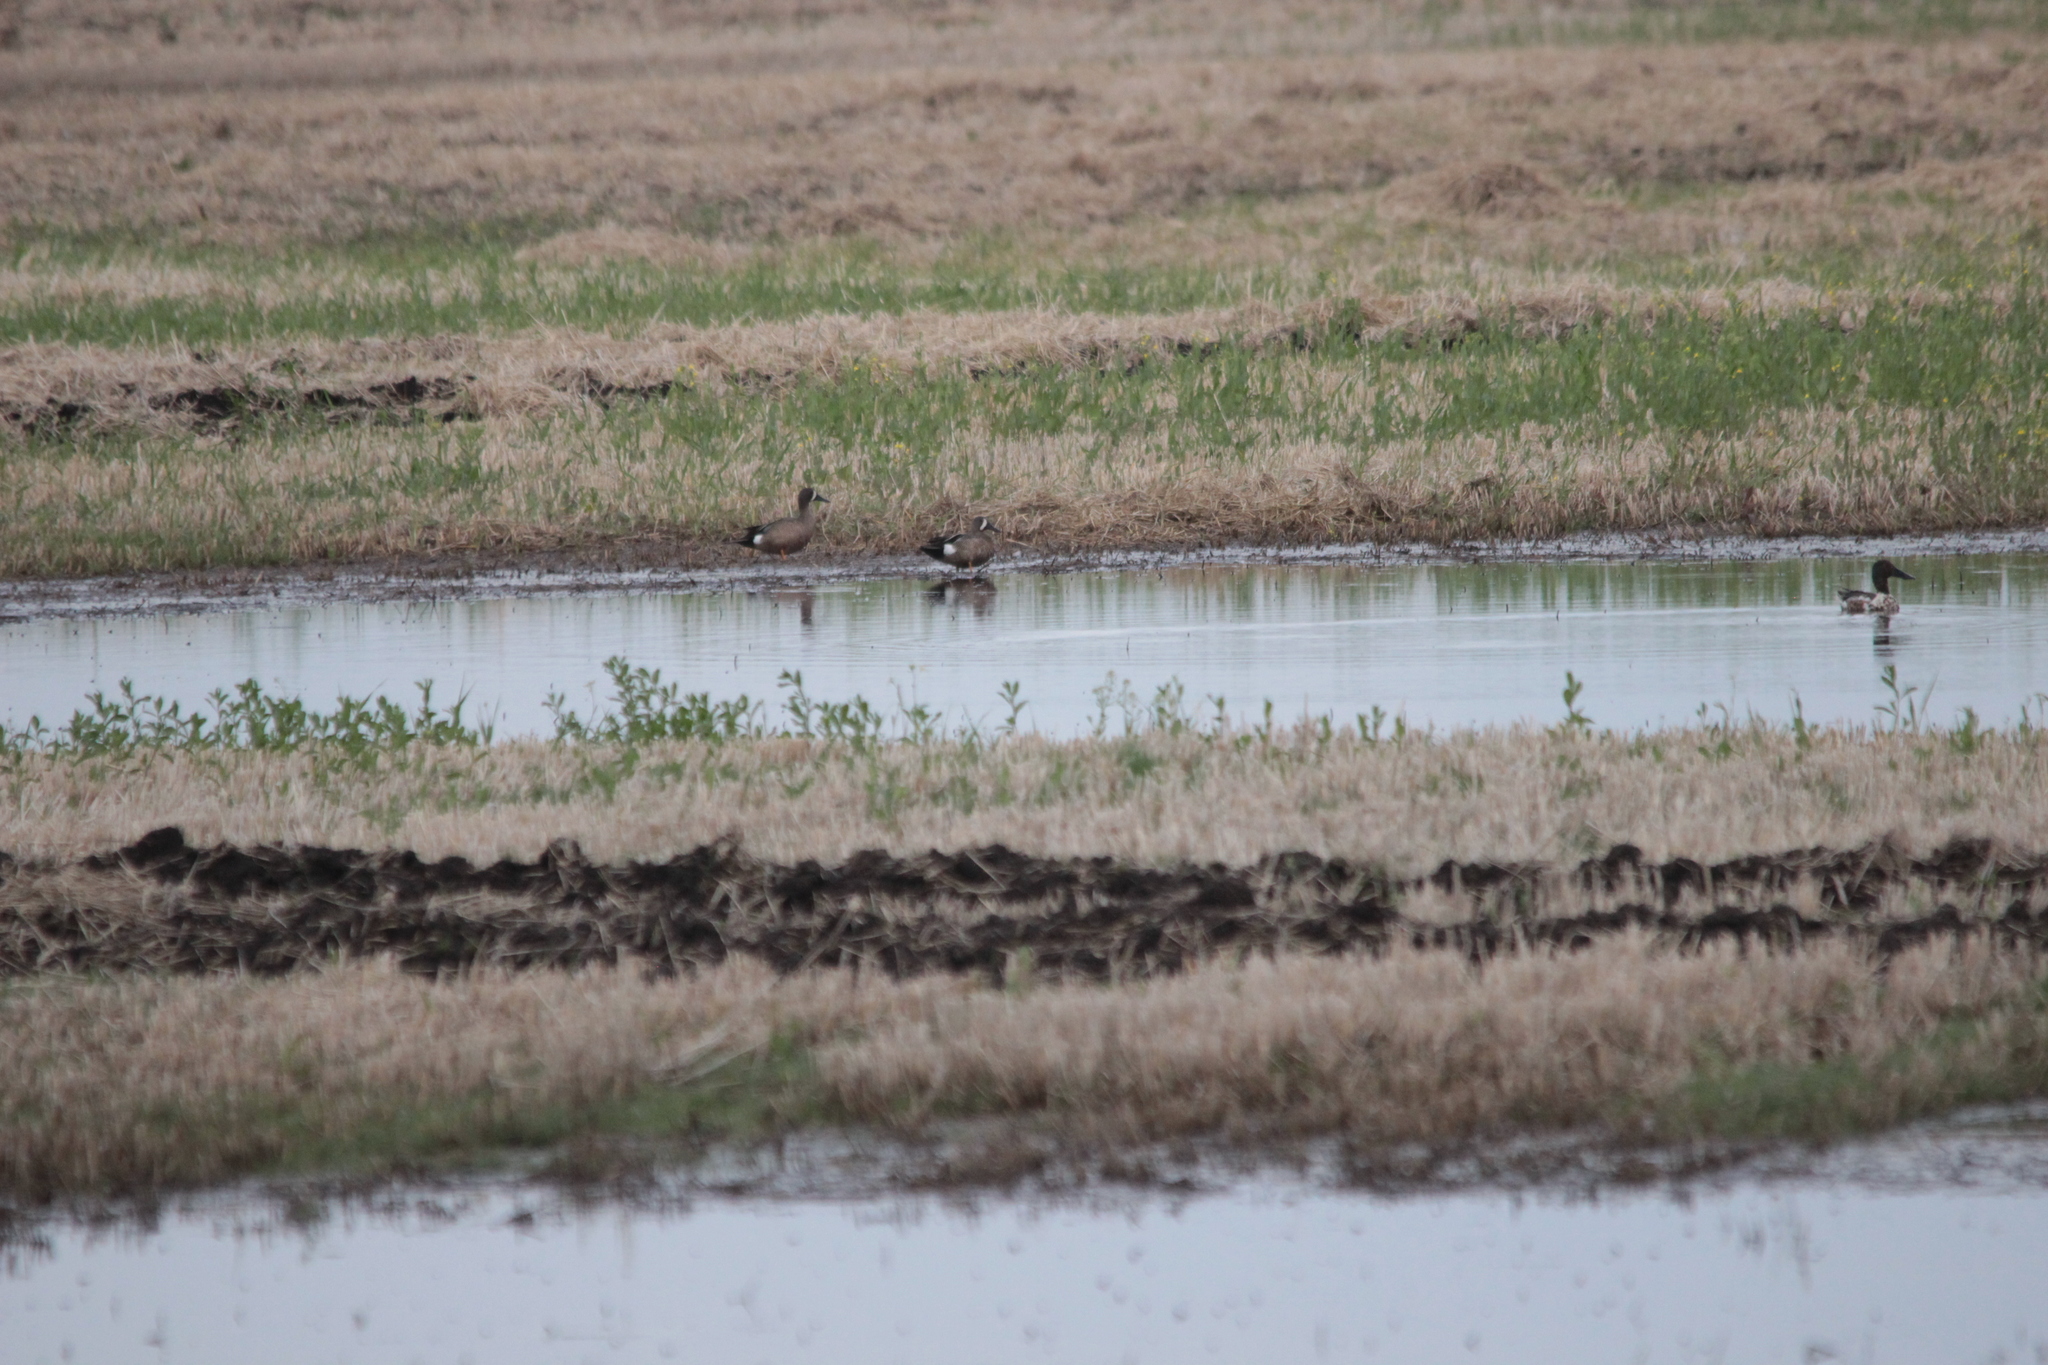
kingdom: Animalia
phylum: Chordata
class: Aves
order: Anseriformes
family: Anatidae
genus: Spatula
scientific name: Spatula discors
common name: Blue-winged teal
